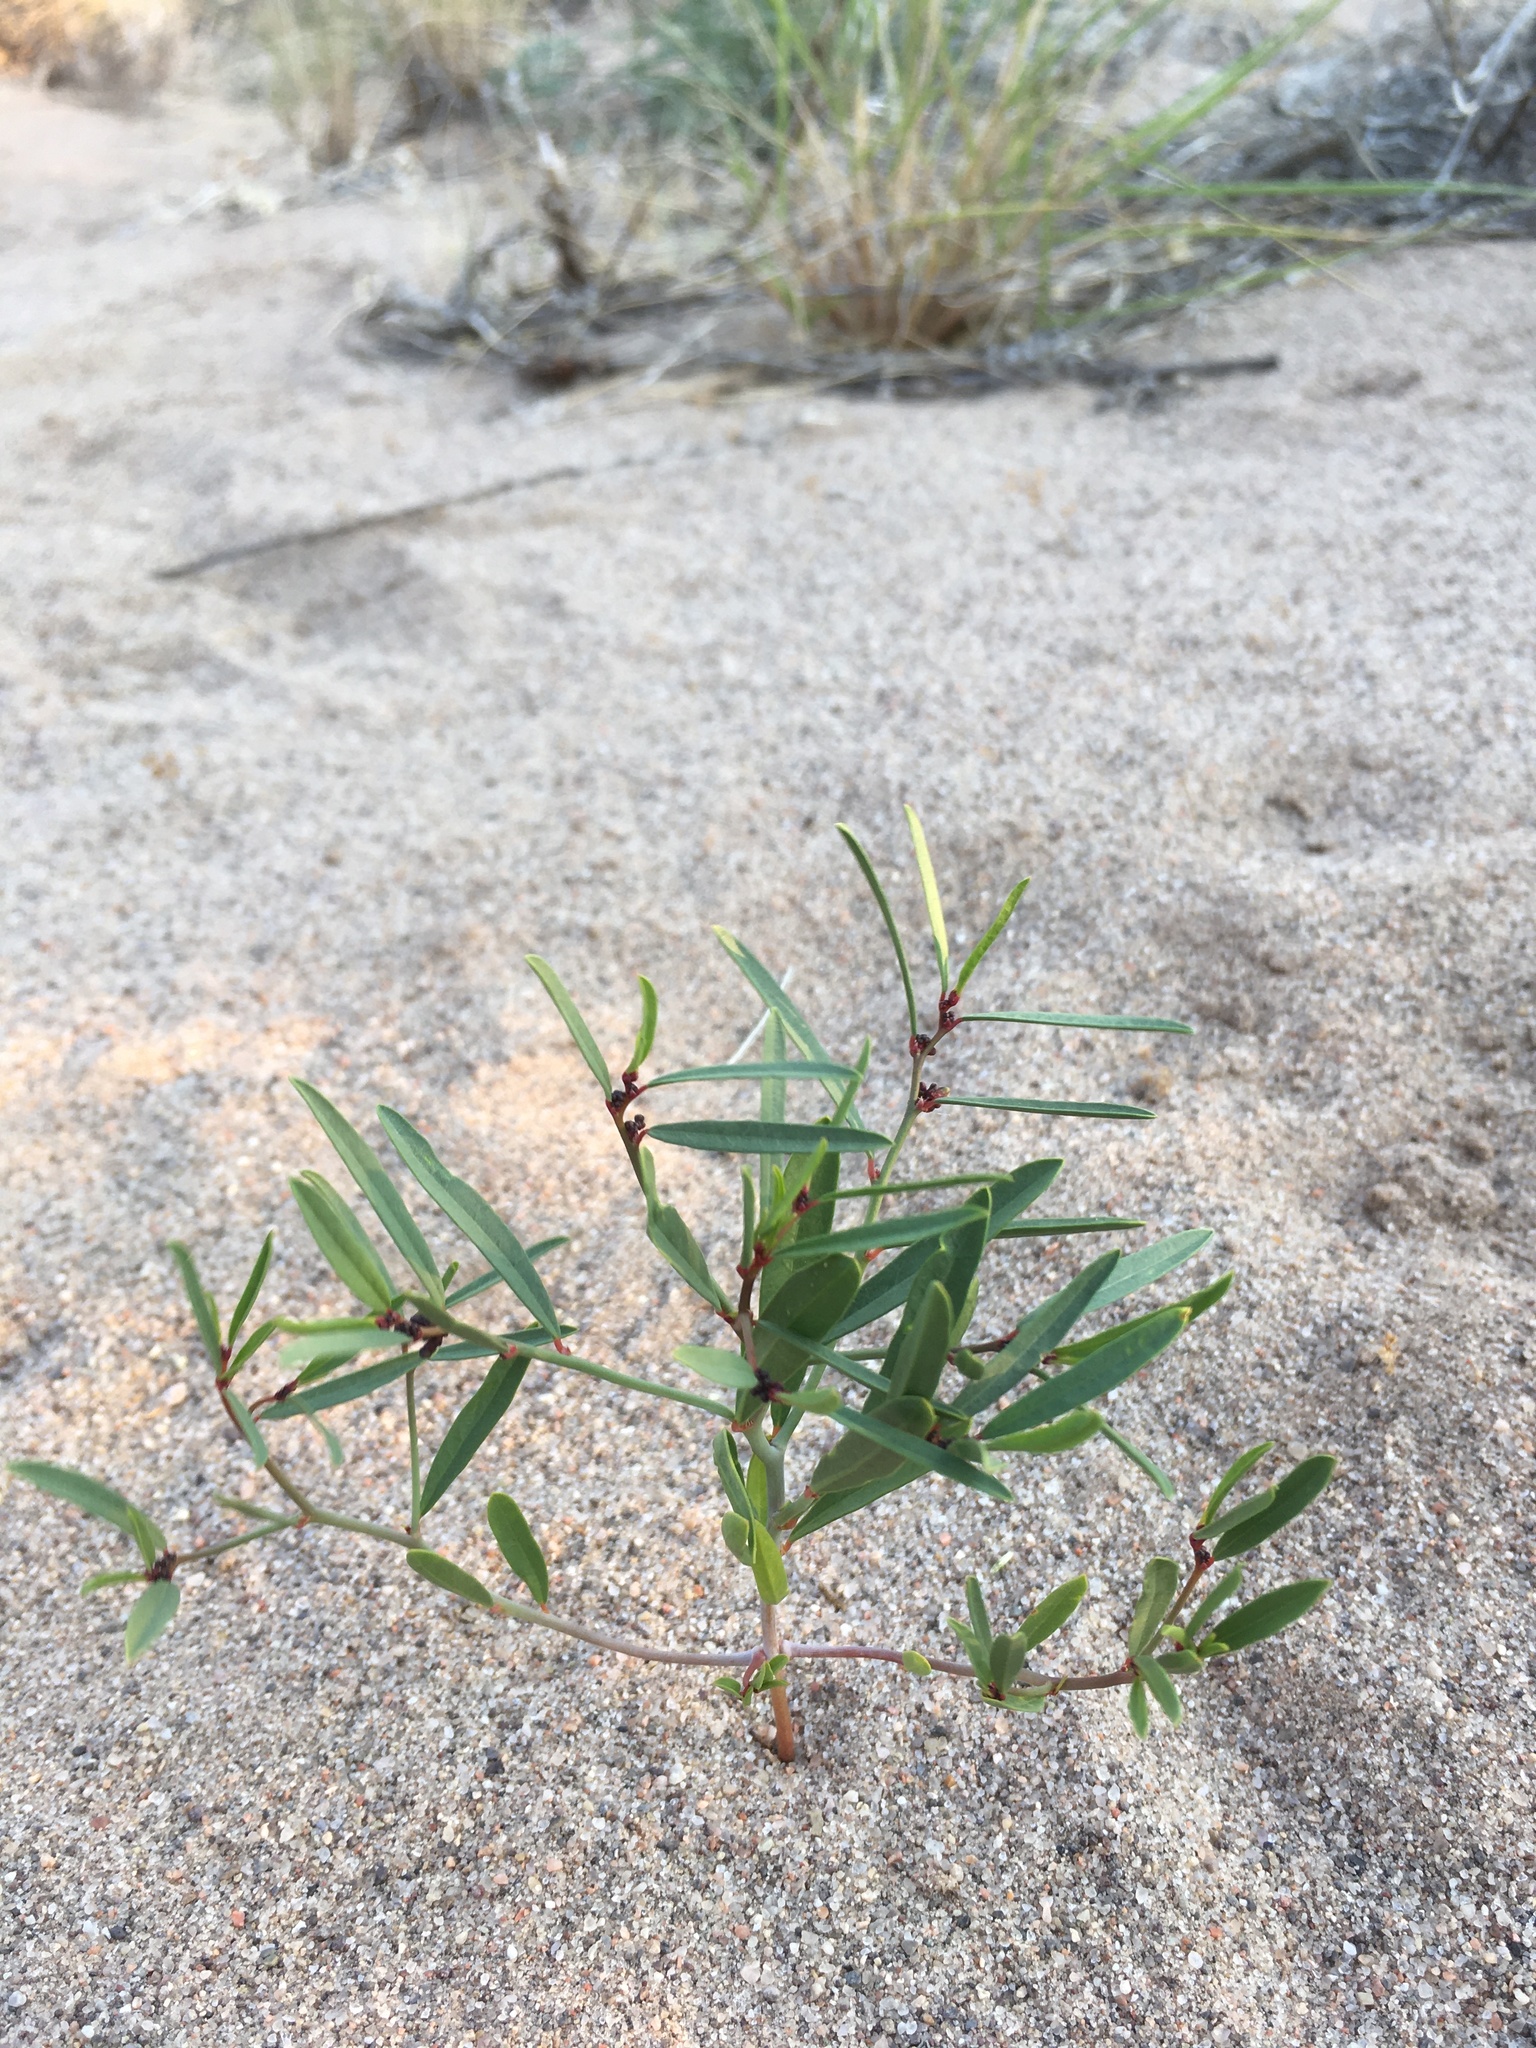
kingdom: Plantae
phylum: Tracheophyta
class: Magnoliopsida
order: Malpighiales
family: Phyllanthaceae
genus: Phyllanthus
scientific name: Phyllanthus warnockii
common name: Sand reverchonia
